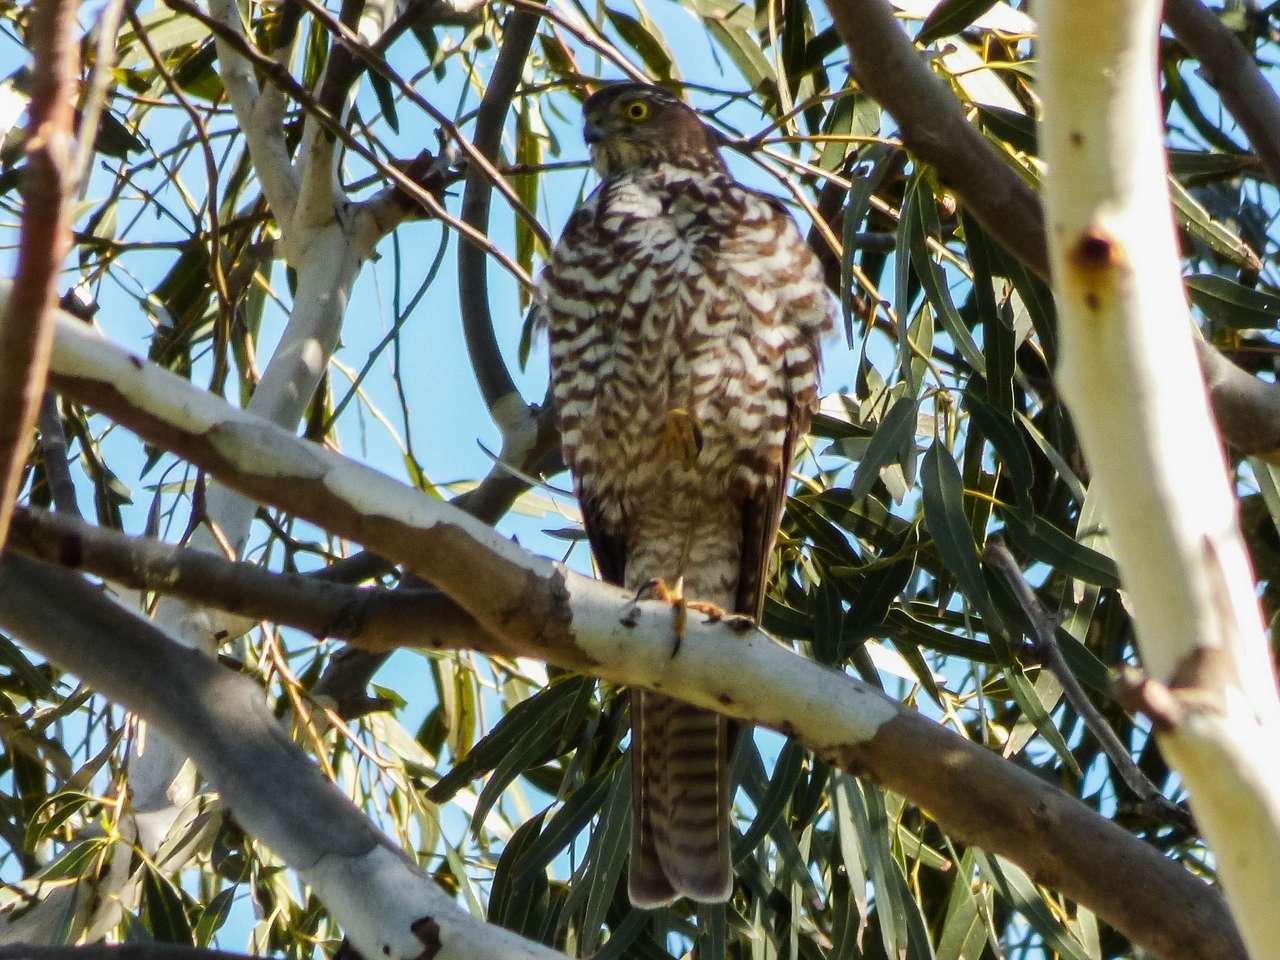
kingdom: Animalia
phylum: Chordata
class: Aves
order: Accipitriformes
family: Accipitridae
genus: Accipiter
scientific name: Accipiter cirrocephalus
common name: Collared sparrowhawk
